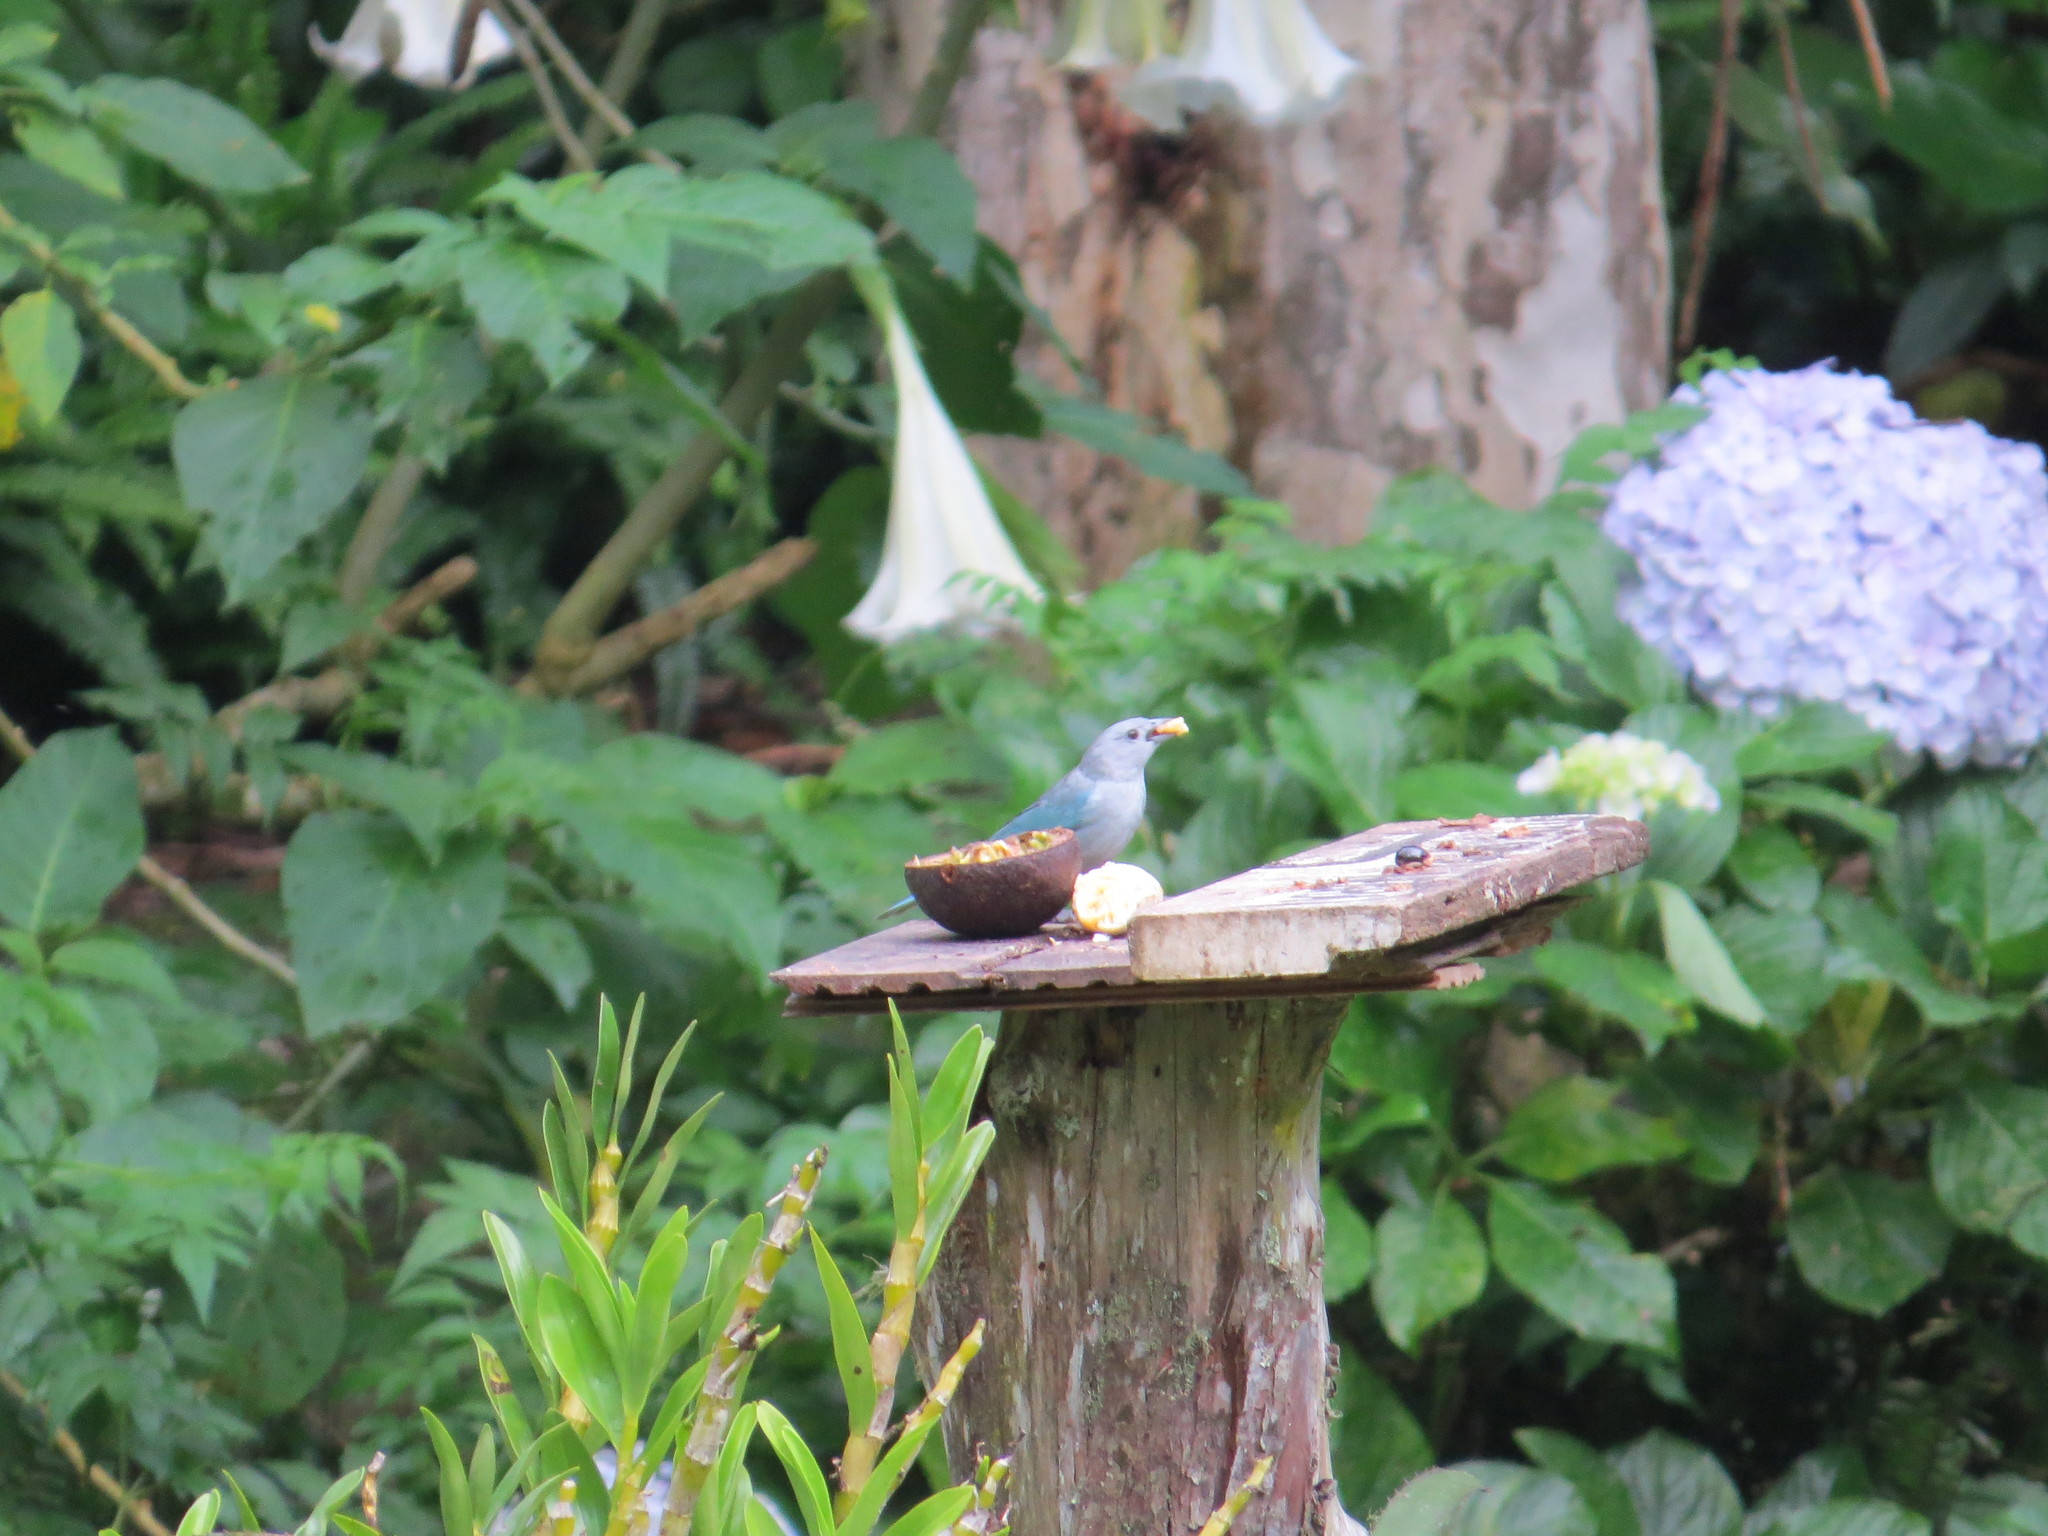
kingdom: Animalia
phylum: Chordata
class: Aves
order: Passeriformes
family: Thraupidae
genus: Thraupis
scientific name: Thraupis sayaca
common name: Sayaca tanager
